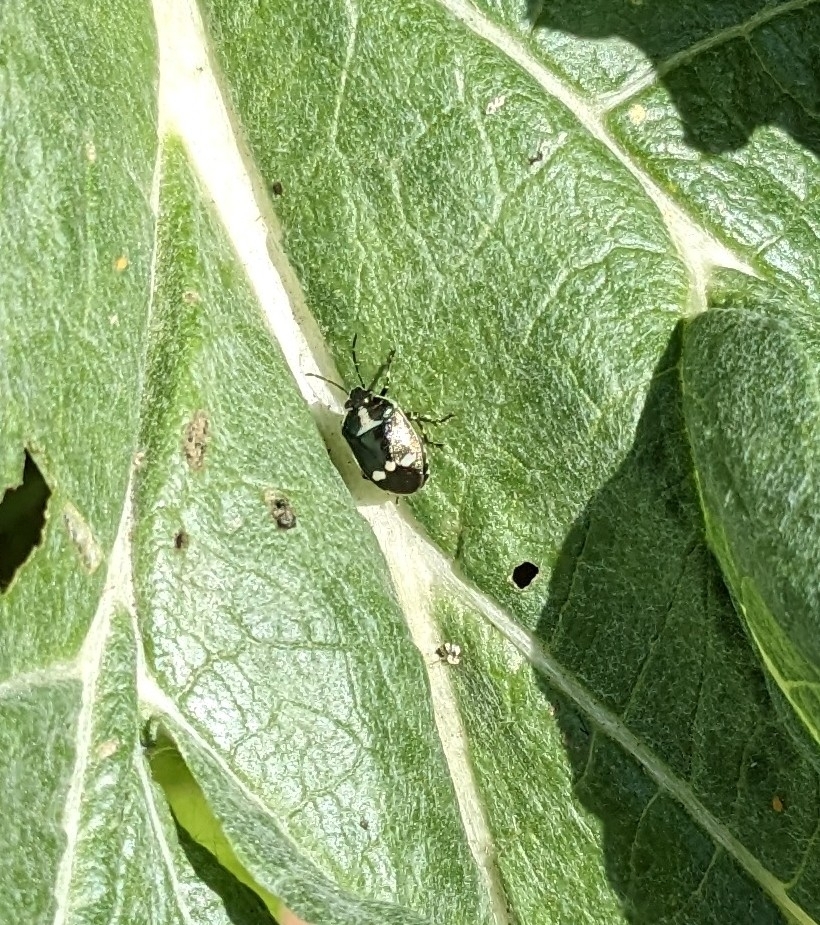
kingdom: Animalia
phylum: Arthropoda
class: Insecta
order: Hemiptera
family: Pentatomidae
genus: Eurydema
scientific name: Eurydema oleracea
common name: Cabbage bug
